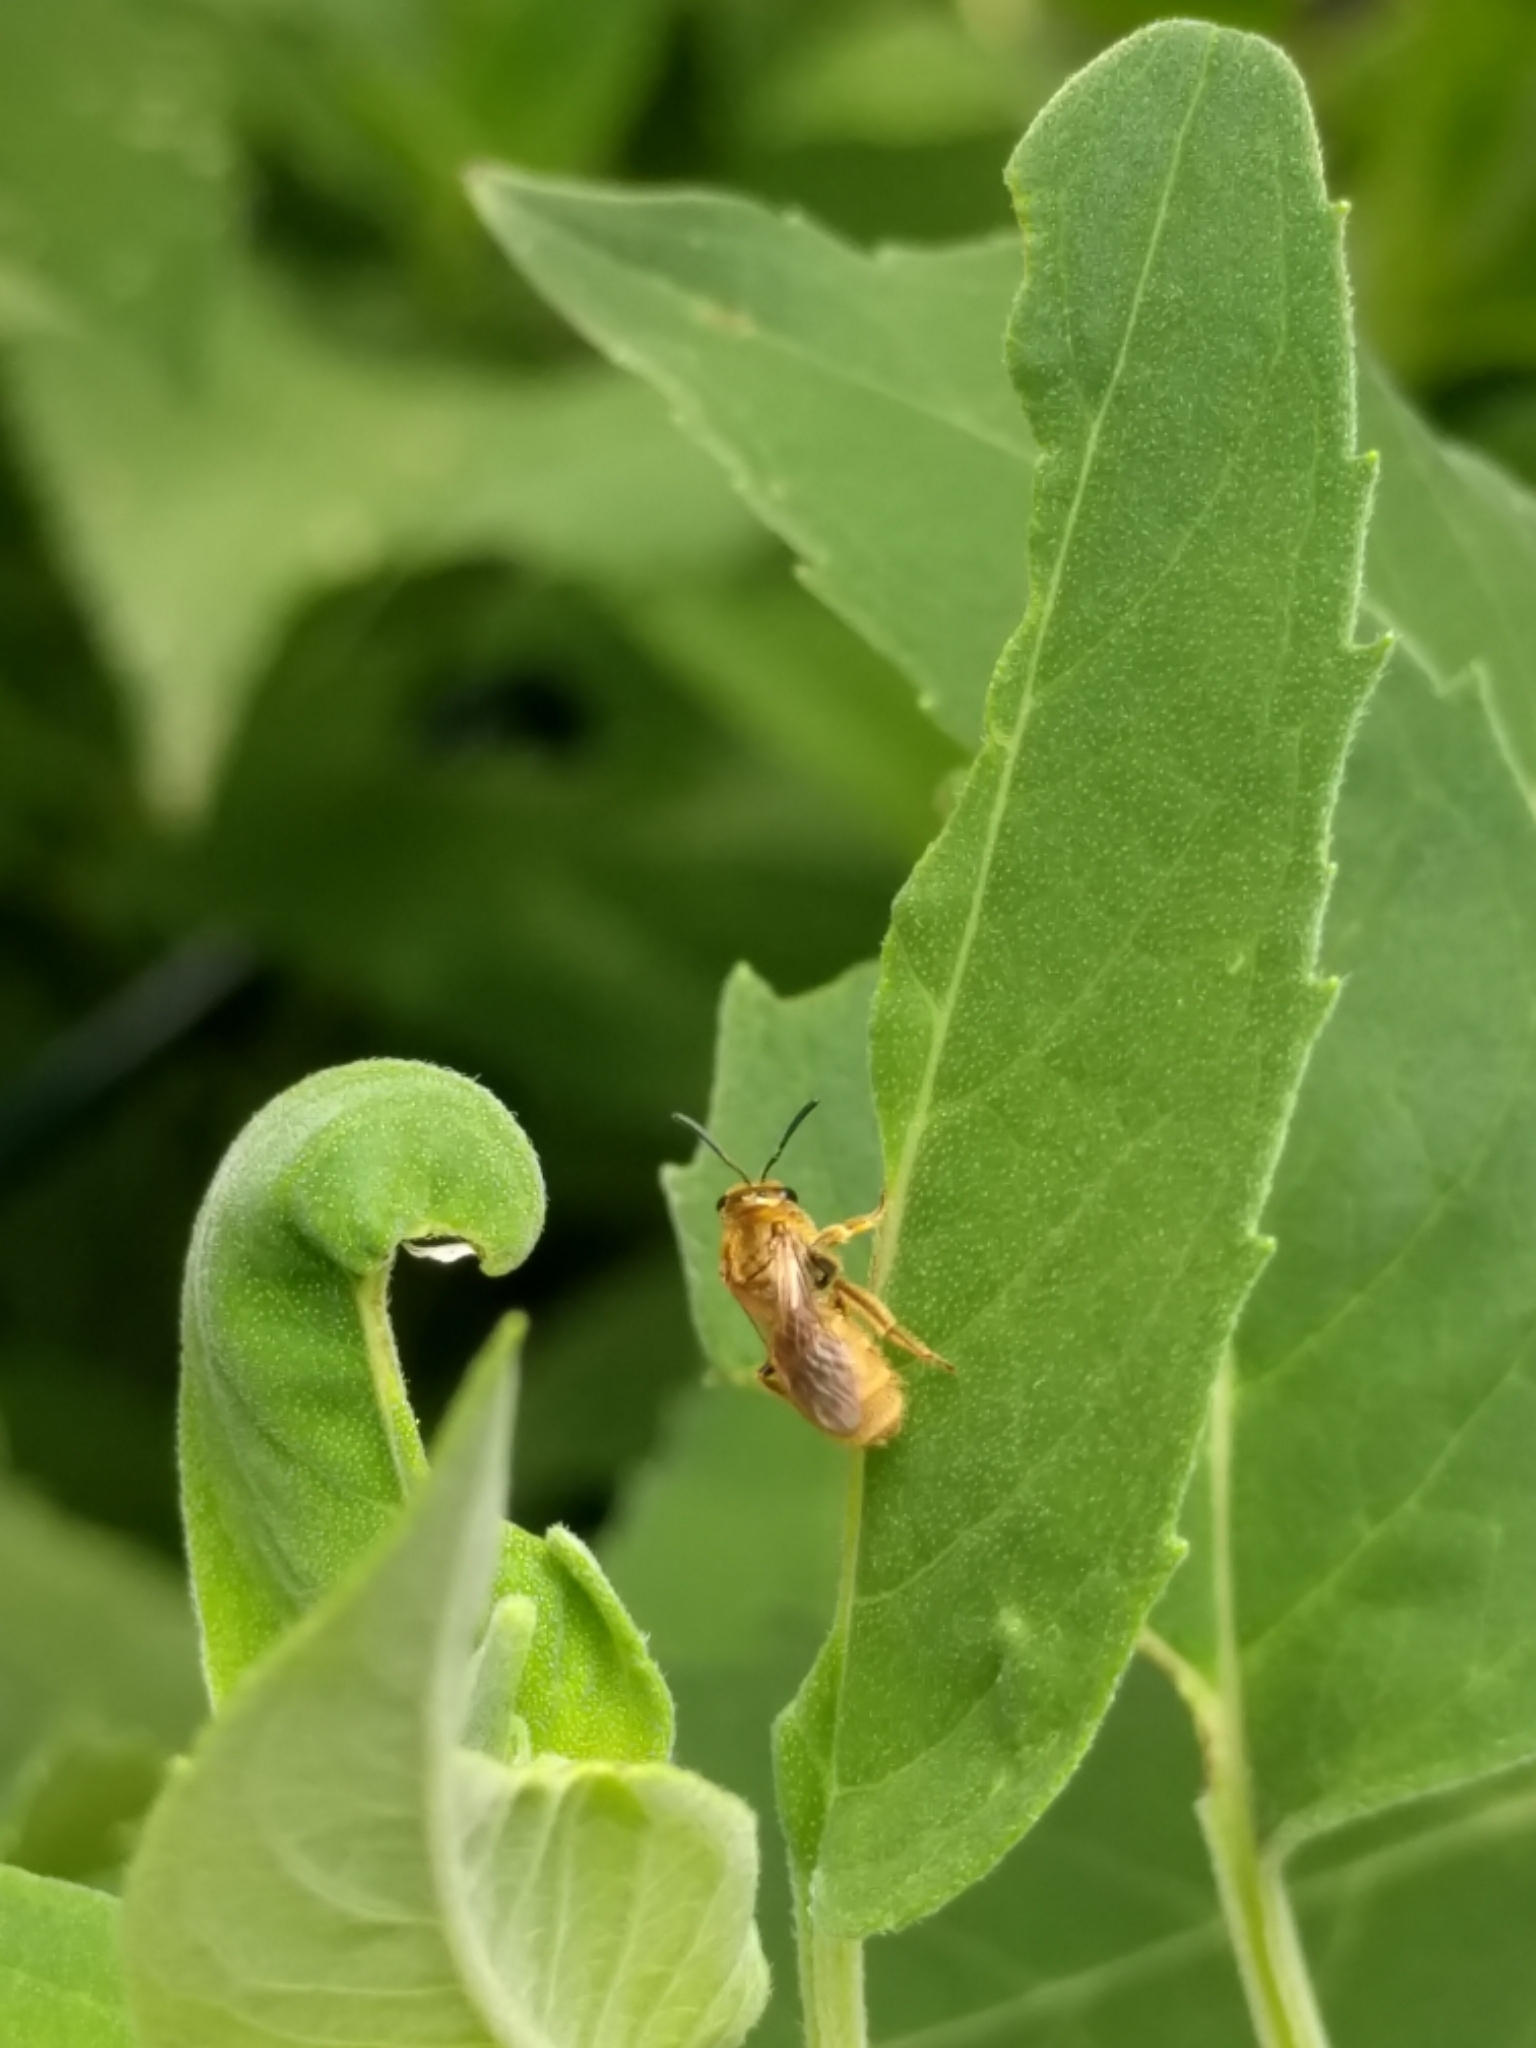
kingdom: Animalia
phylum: Arthropoda
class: Insecta
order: Hymenoptera
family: Halictidae
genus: Lasioglossum
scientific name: Lasioglossum pilosum
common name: Hairy metallic-sweat bee
